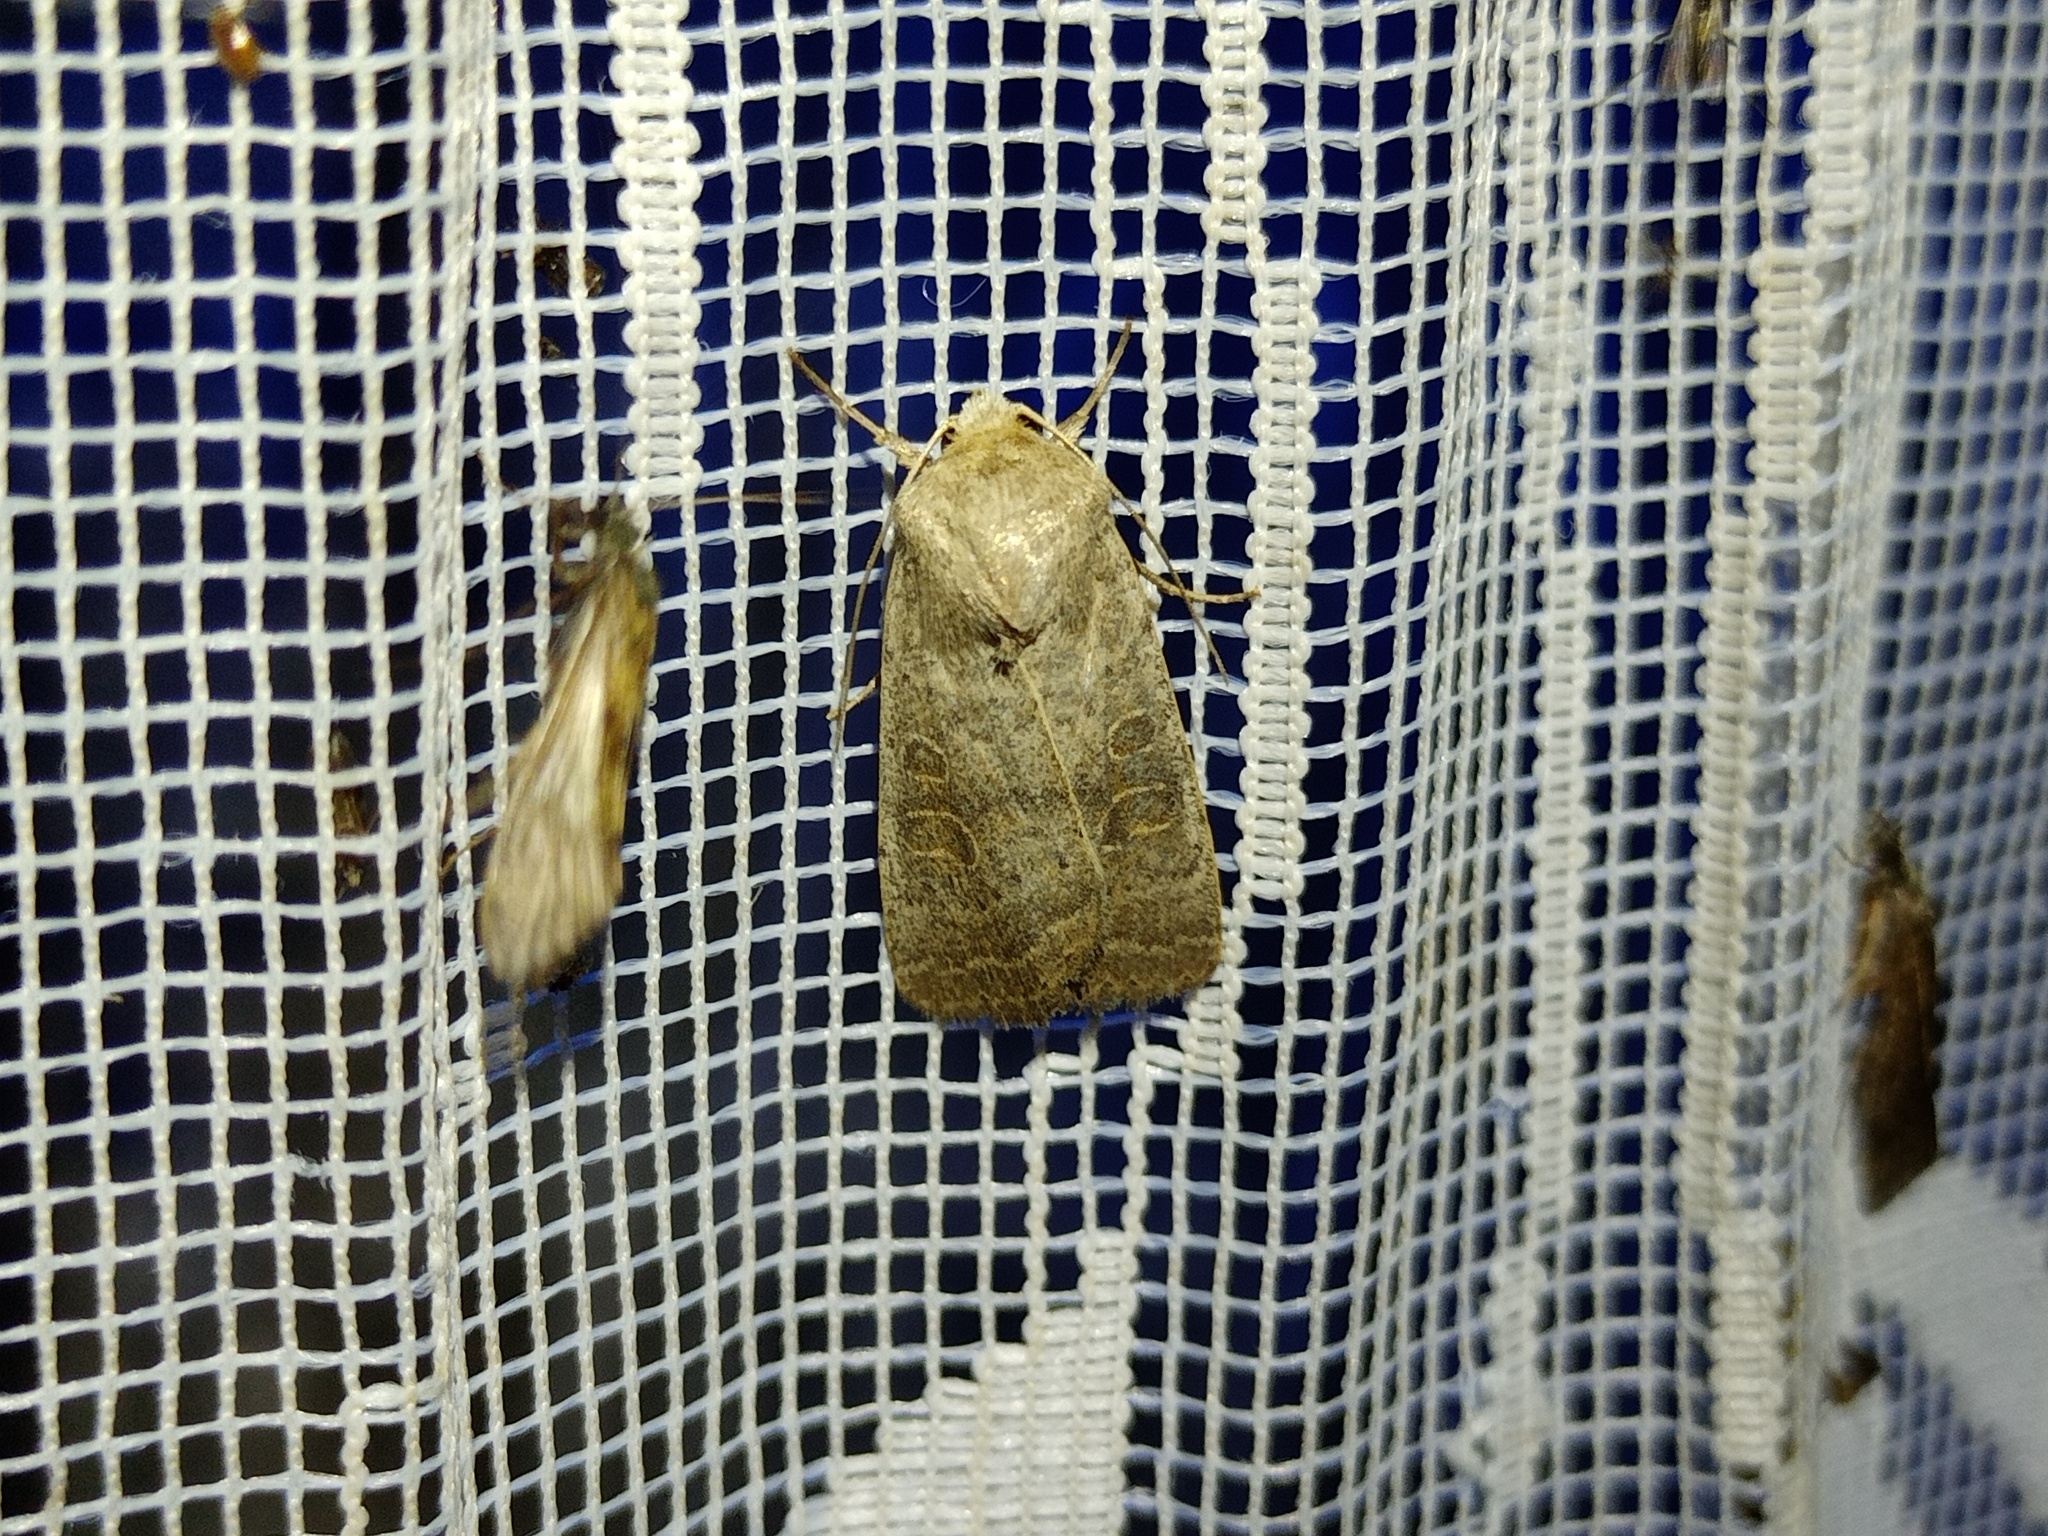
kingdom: Animalia
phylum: Arthropoda
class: Insecta
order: Lepidoptera
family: Noctuidae
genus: Hoplodrina
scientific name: Hoplodrina ambigua
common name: Vine's rustic
